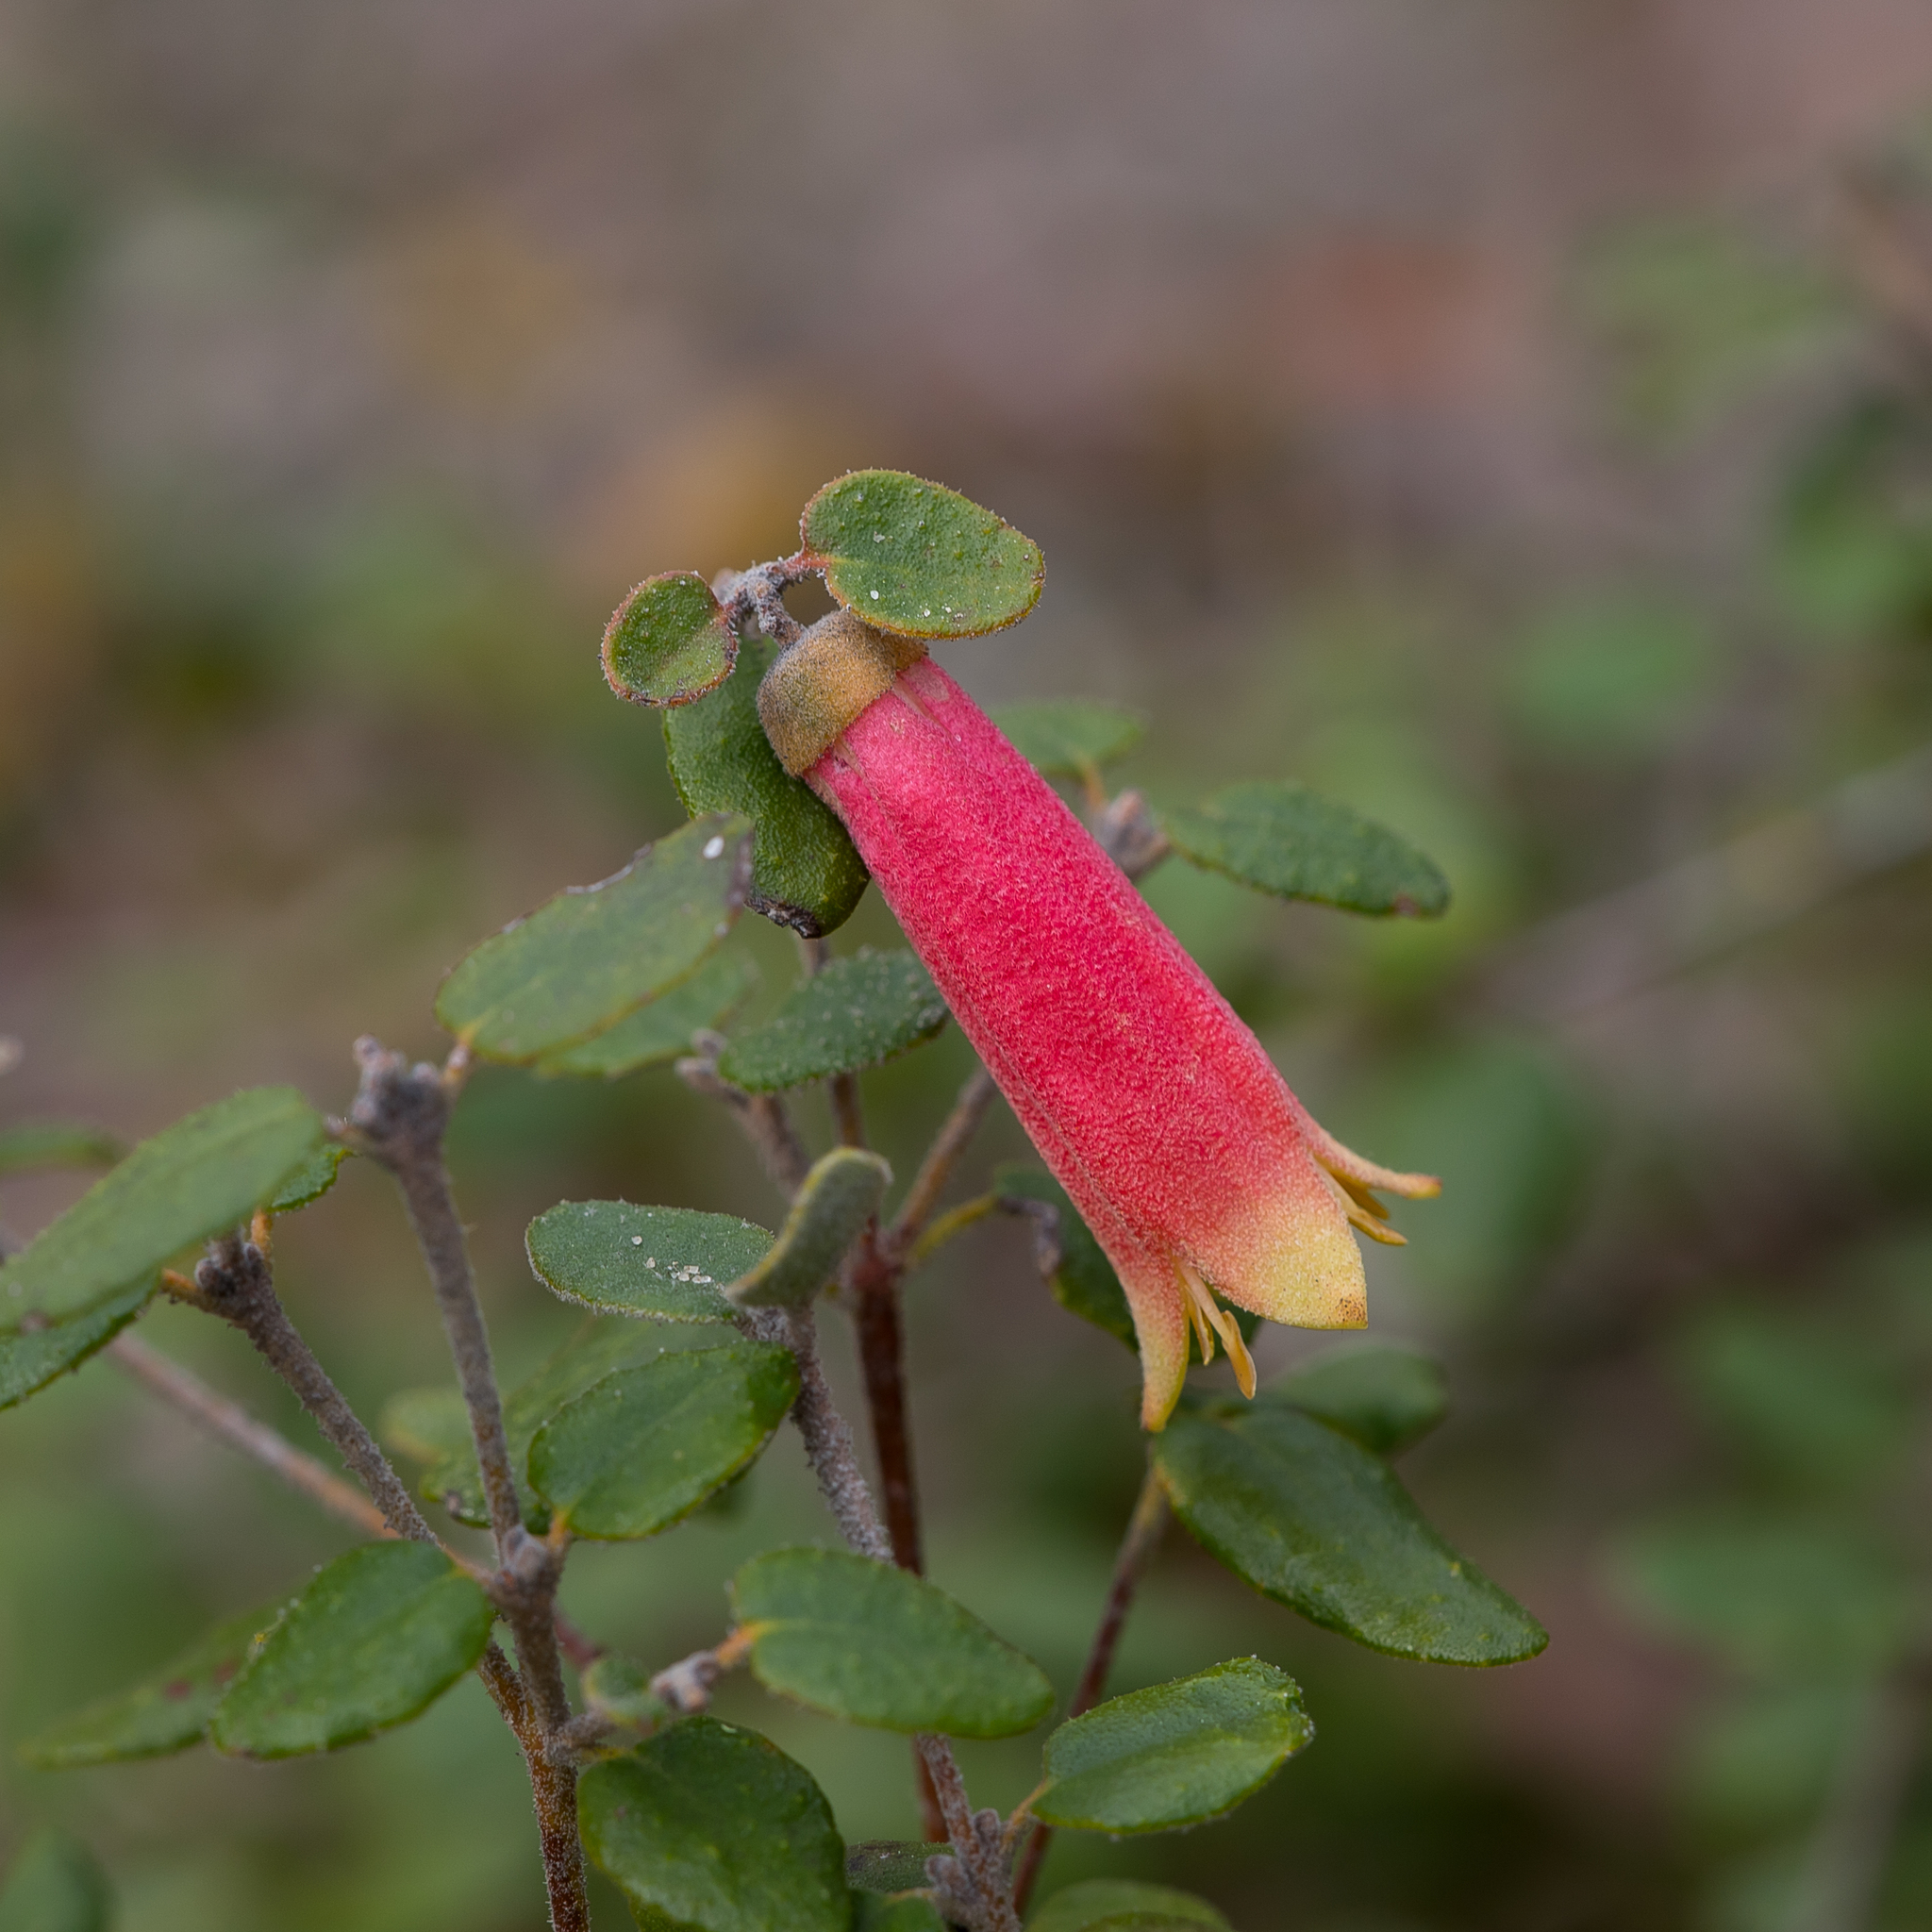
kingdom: Plantae
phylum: Tracheophyta
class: Magnoliopsida
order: Sapindales
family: Rutaceae
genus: Correa
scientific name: Correa reflexa
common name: Common correa
